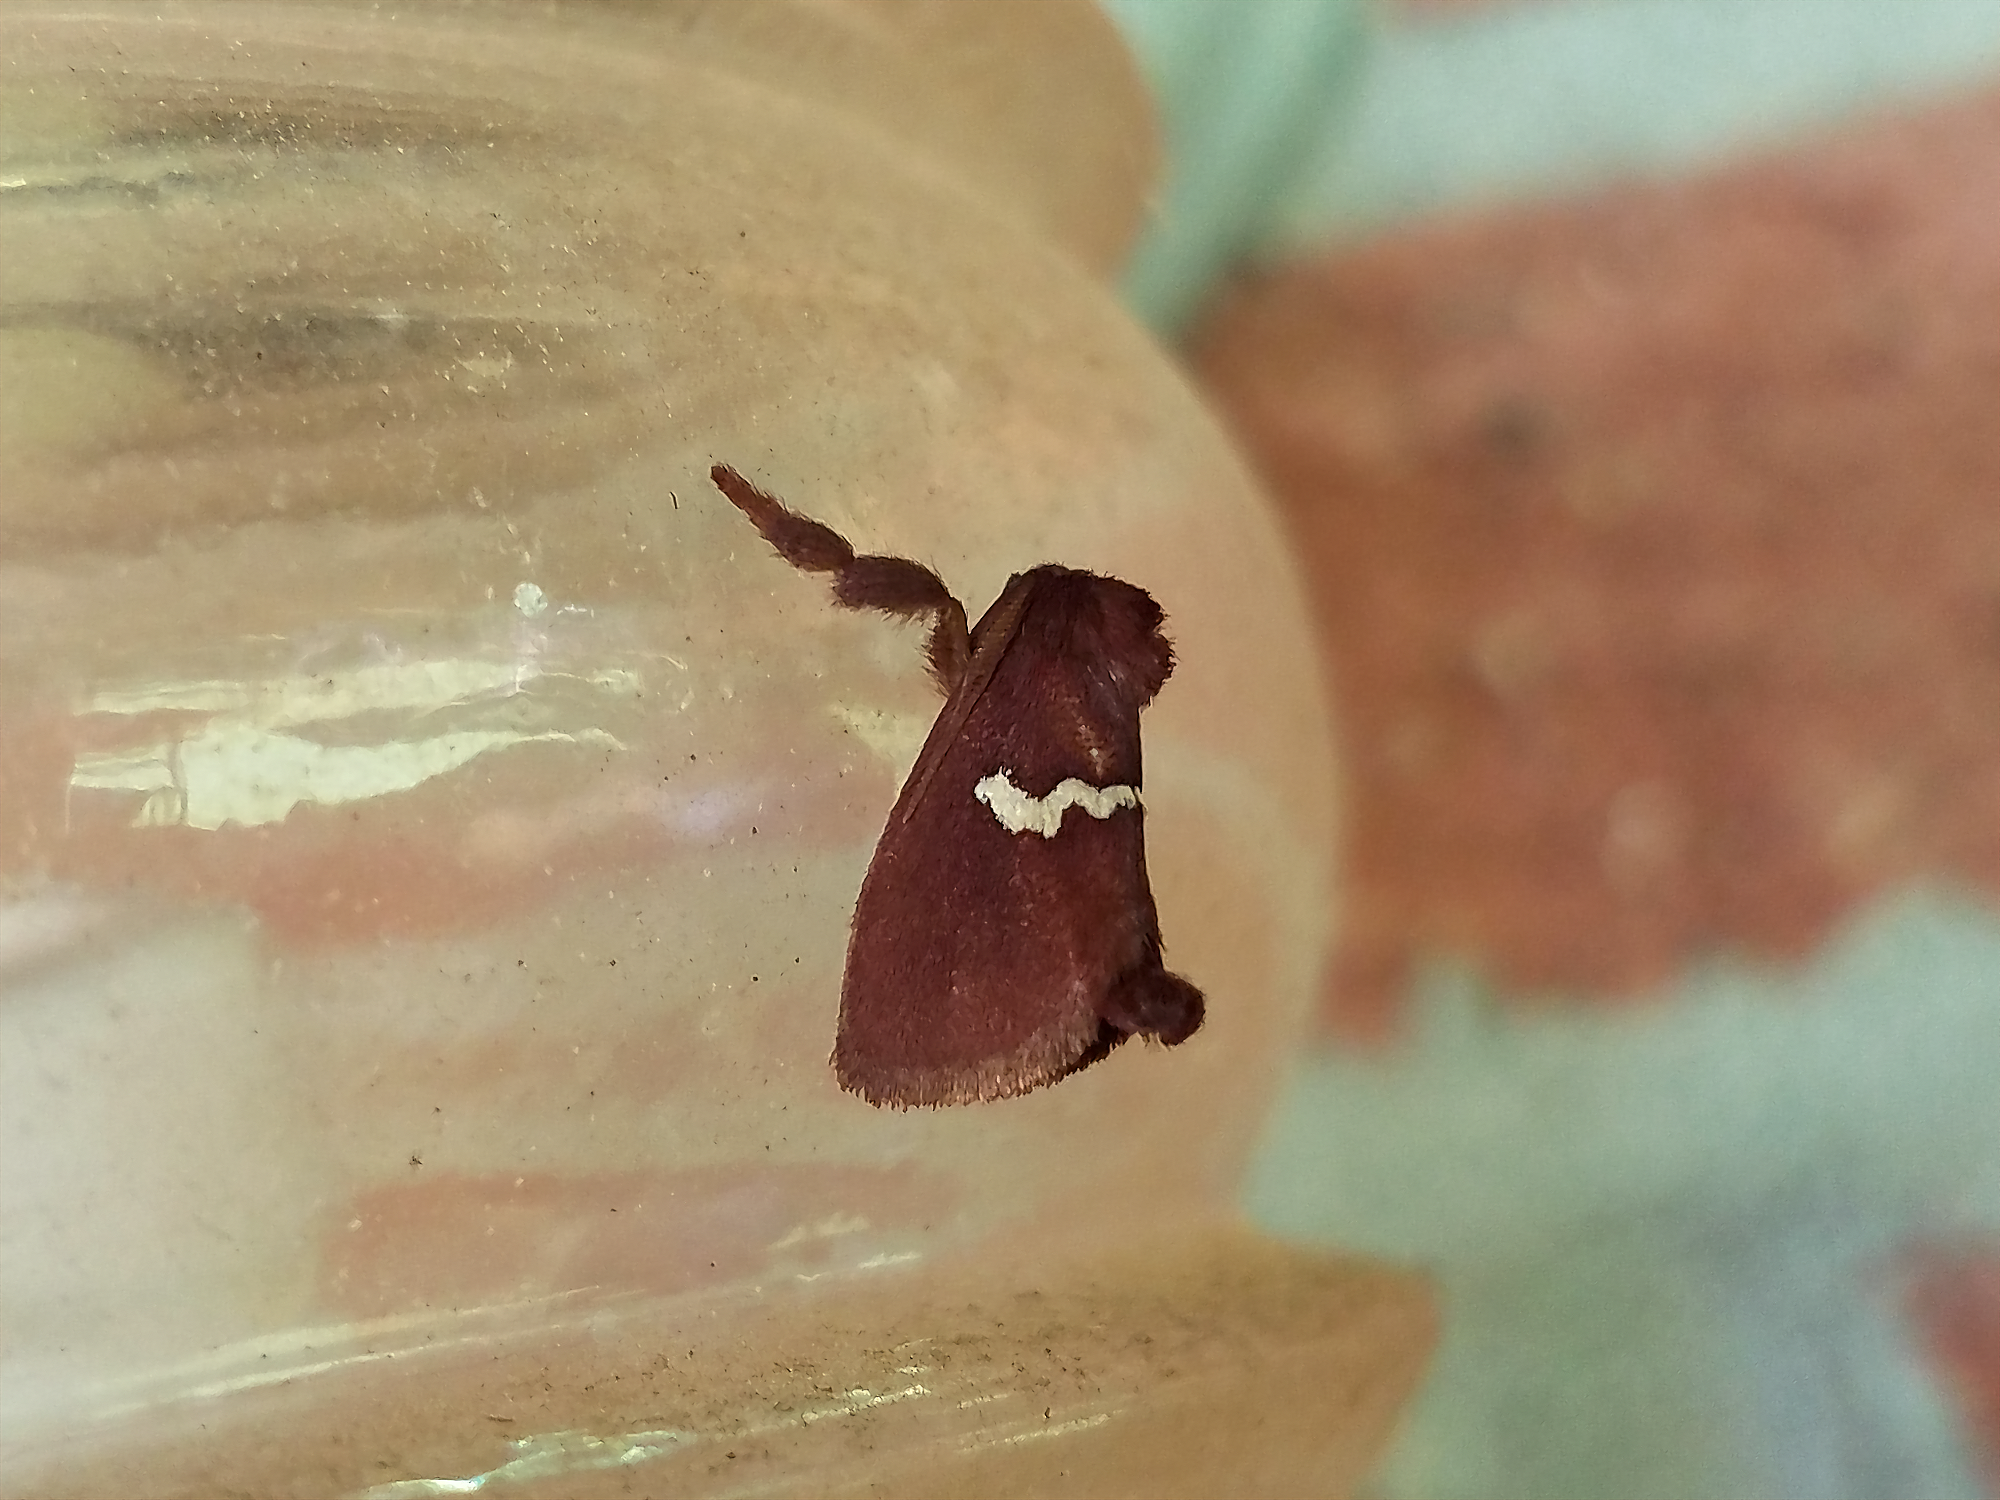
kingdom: Animalia
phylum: Arthropoda
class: Insecta
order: Lepidoptera
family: Limacodidae
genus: Monoleuca
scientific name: Monoleuca semifascia
